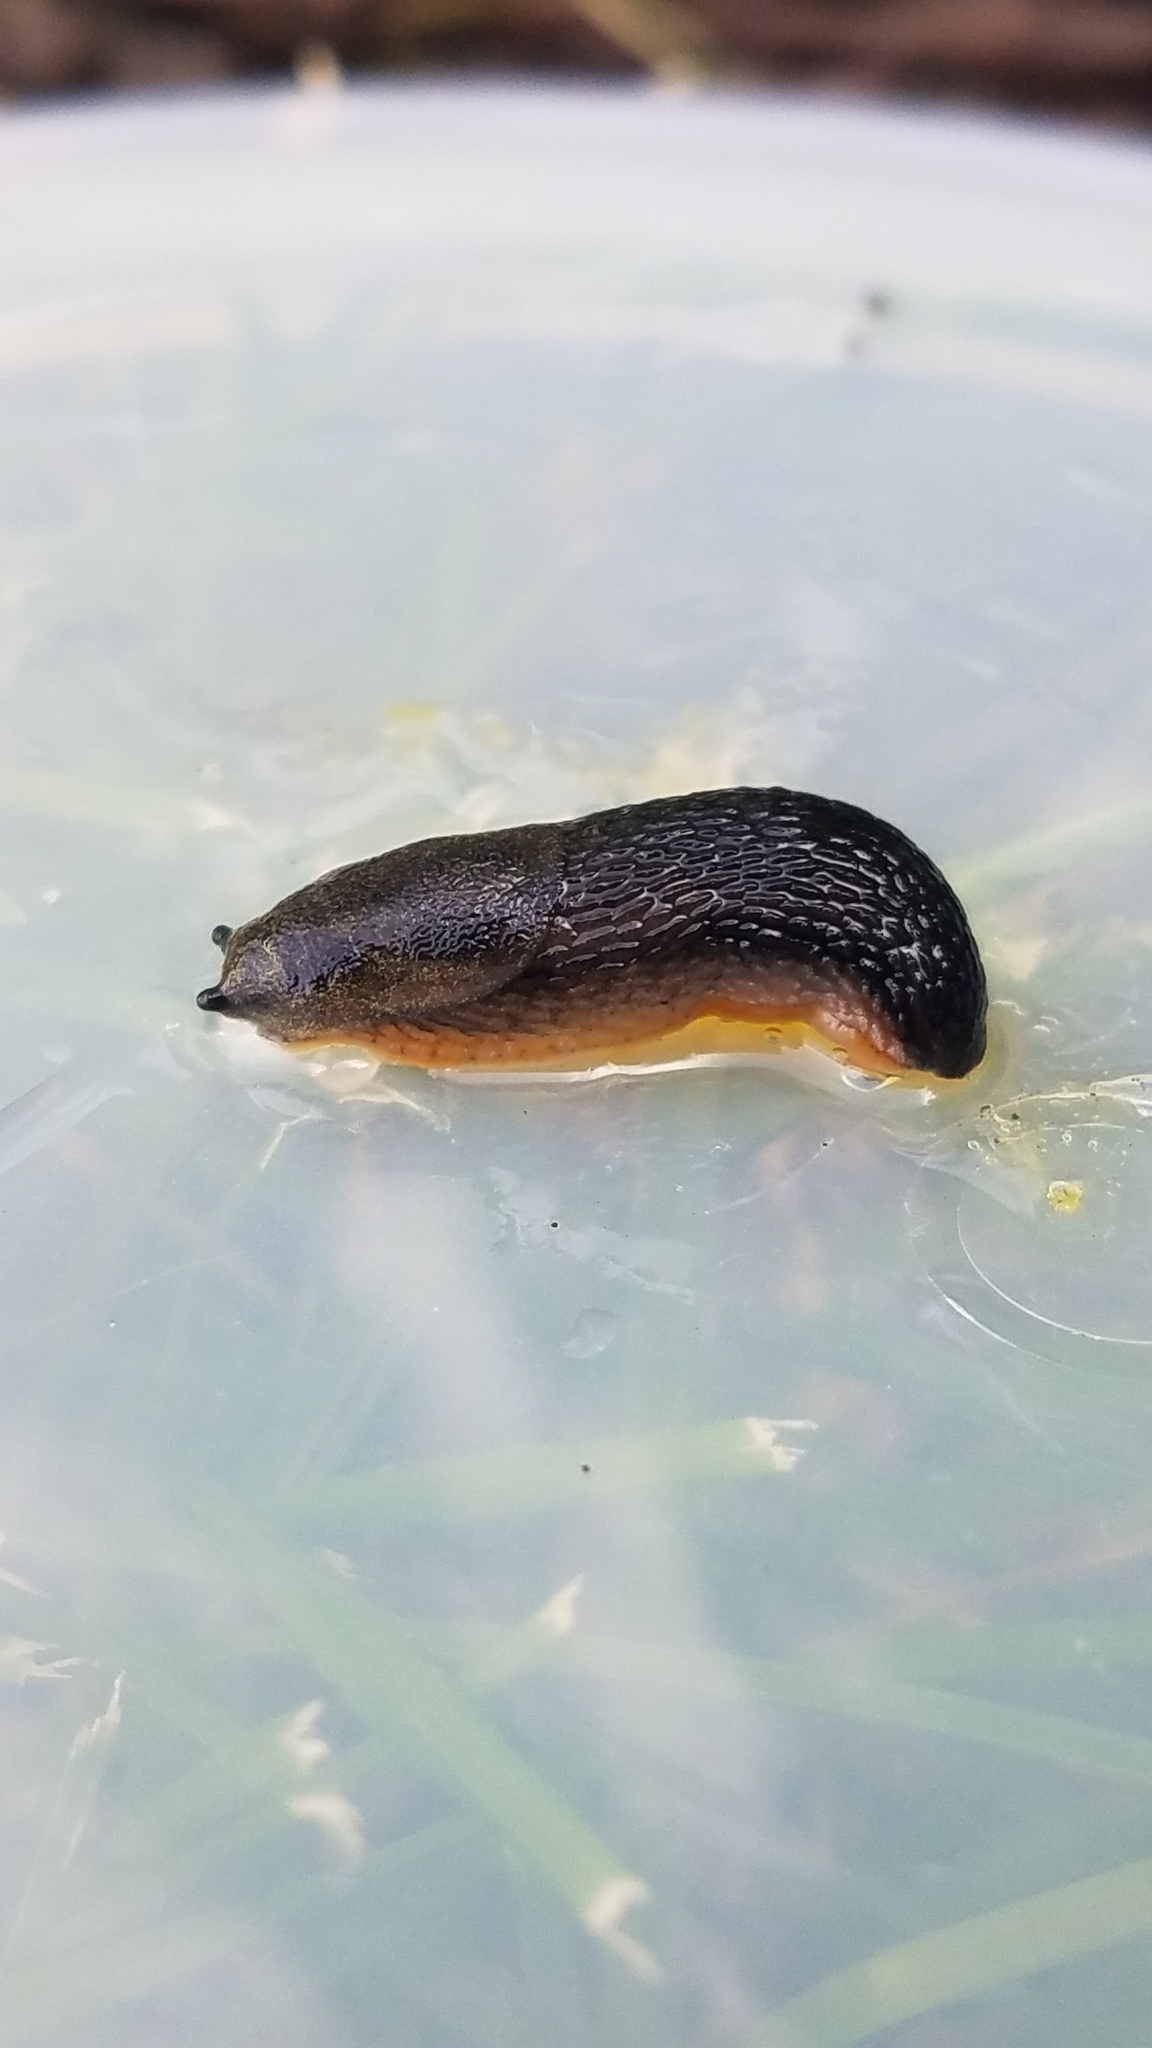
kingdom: Animalia
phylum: Mollusca
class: Gastropoda
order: Stylommatophora
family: Arionidae
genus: Arion
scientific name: Arion hortensis
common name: Garden arion
